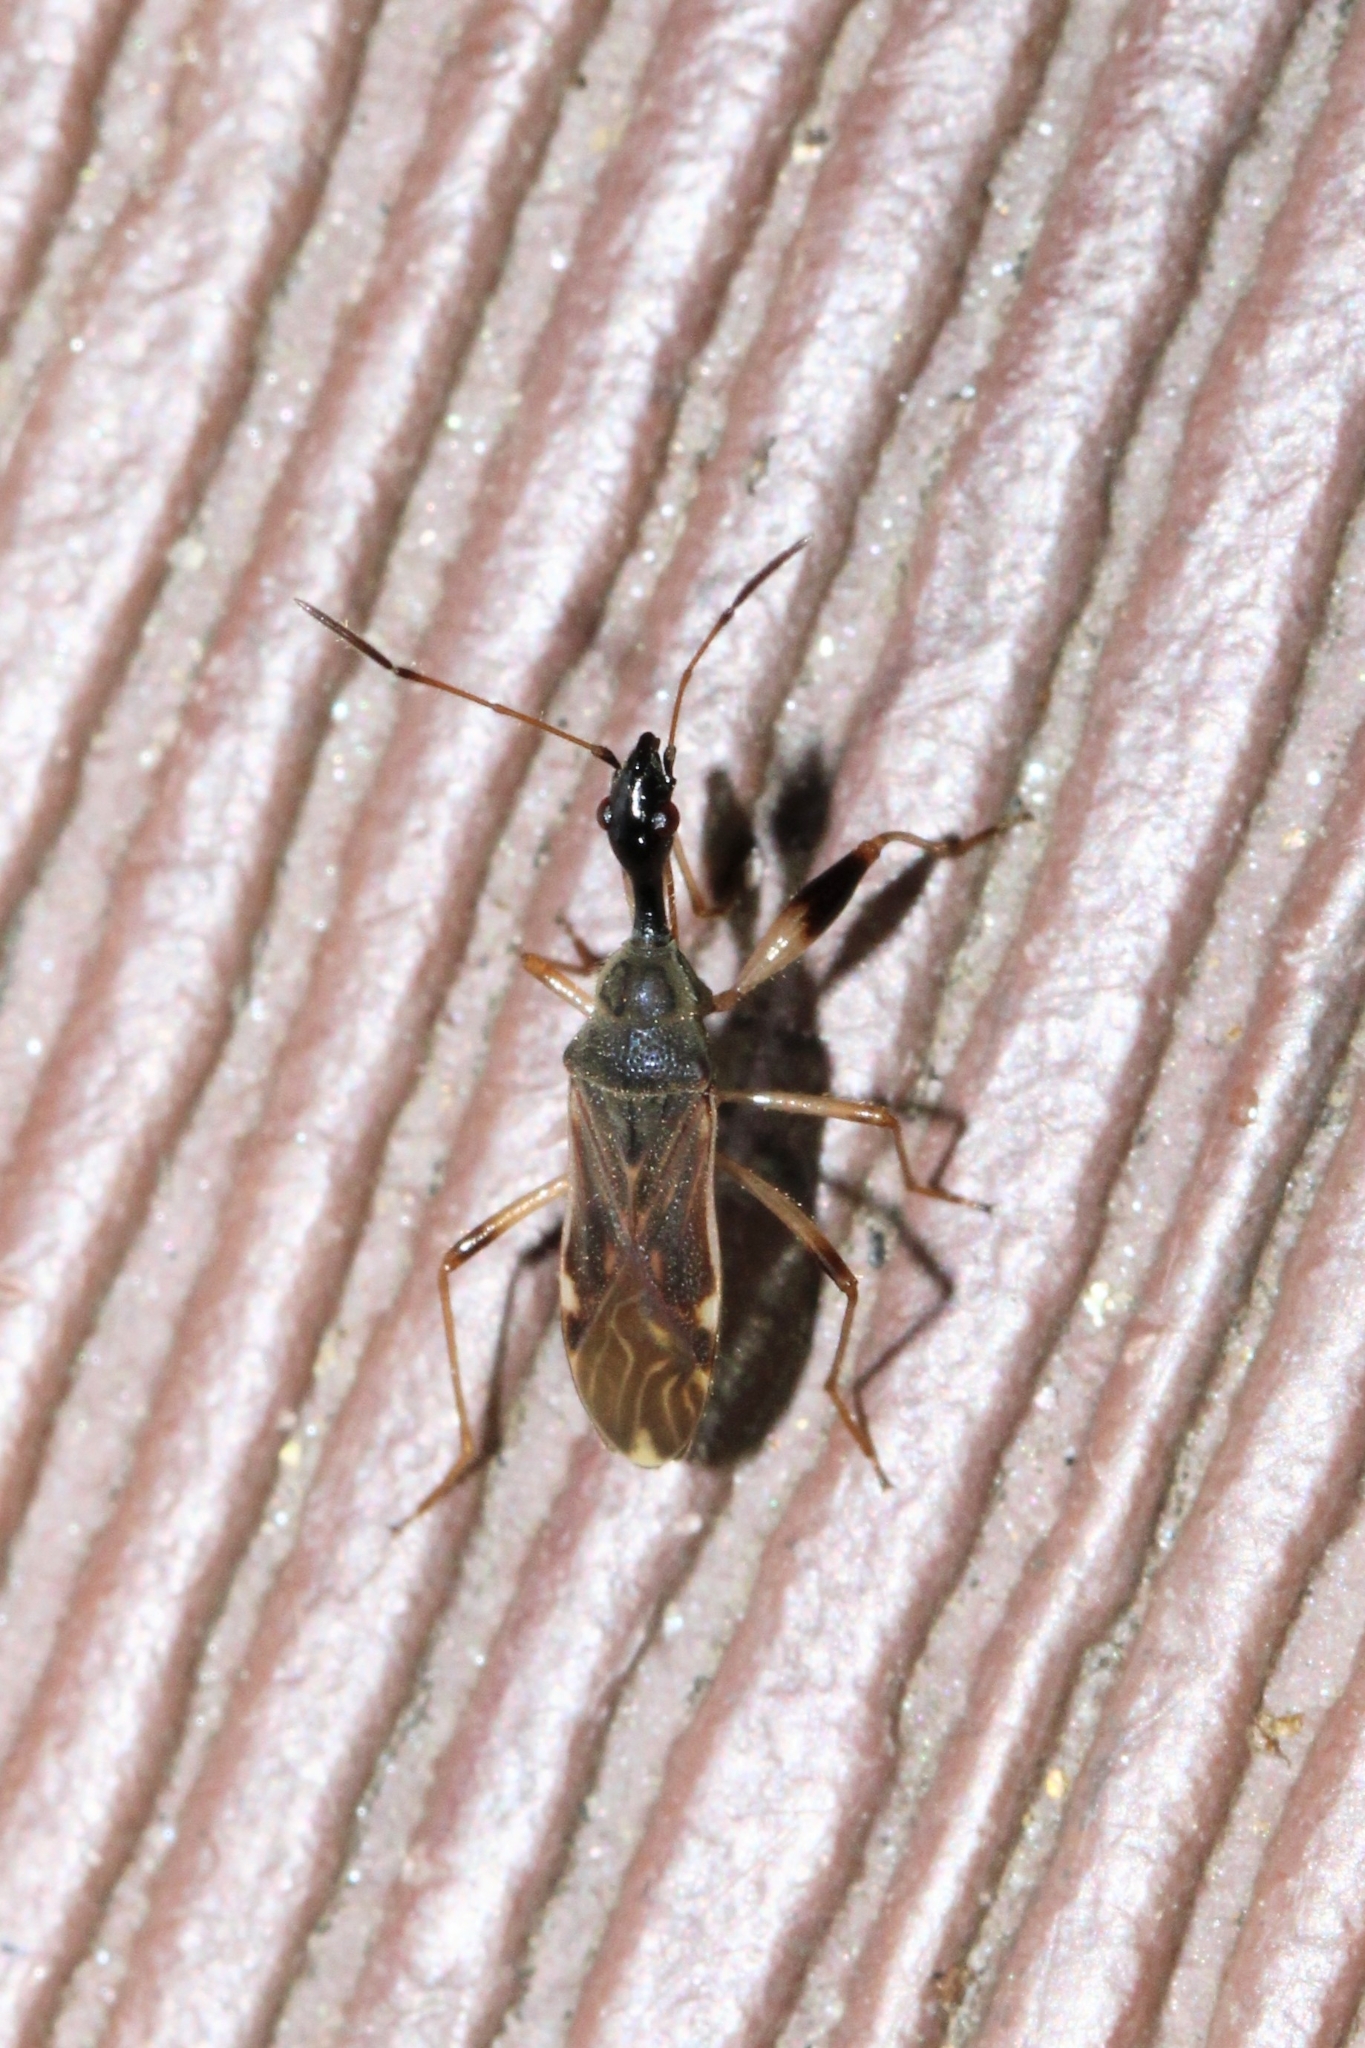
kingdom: Animalia
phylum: Arthropoda
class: Insecta
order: Hemiptera
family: Rhyparochromidae
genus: Myodocha
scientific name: Myodocha serripes
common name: Long-necked seed bug
